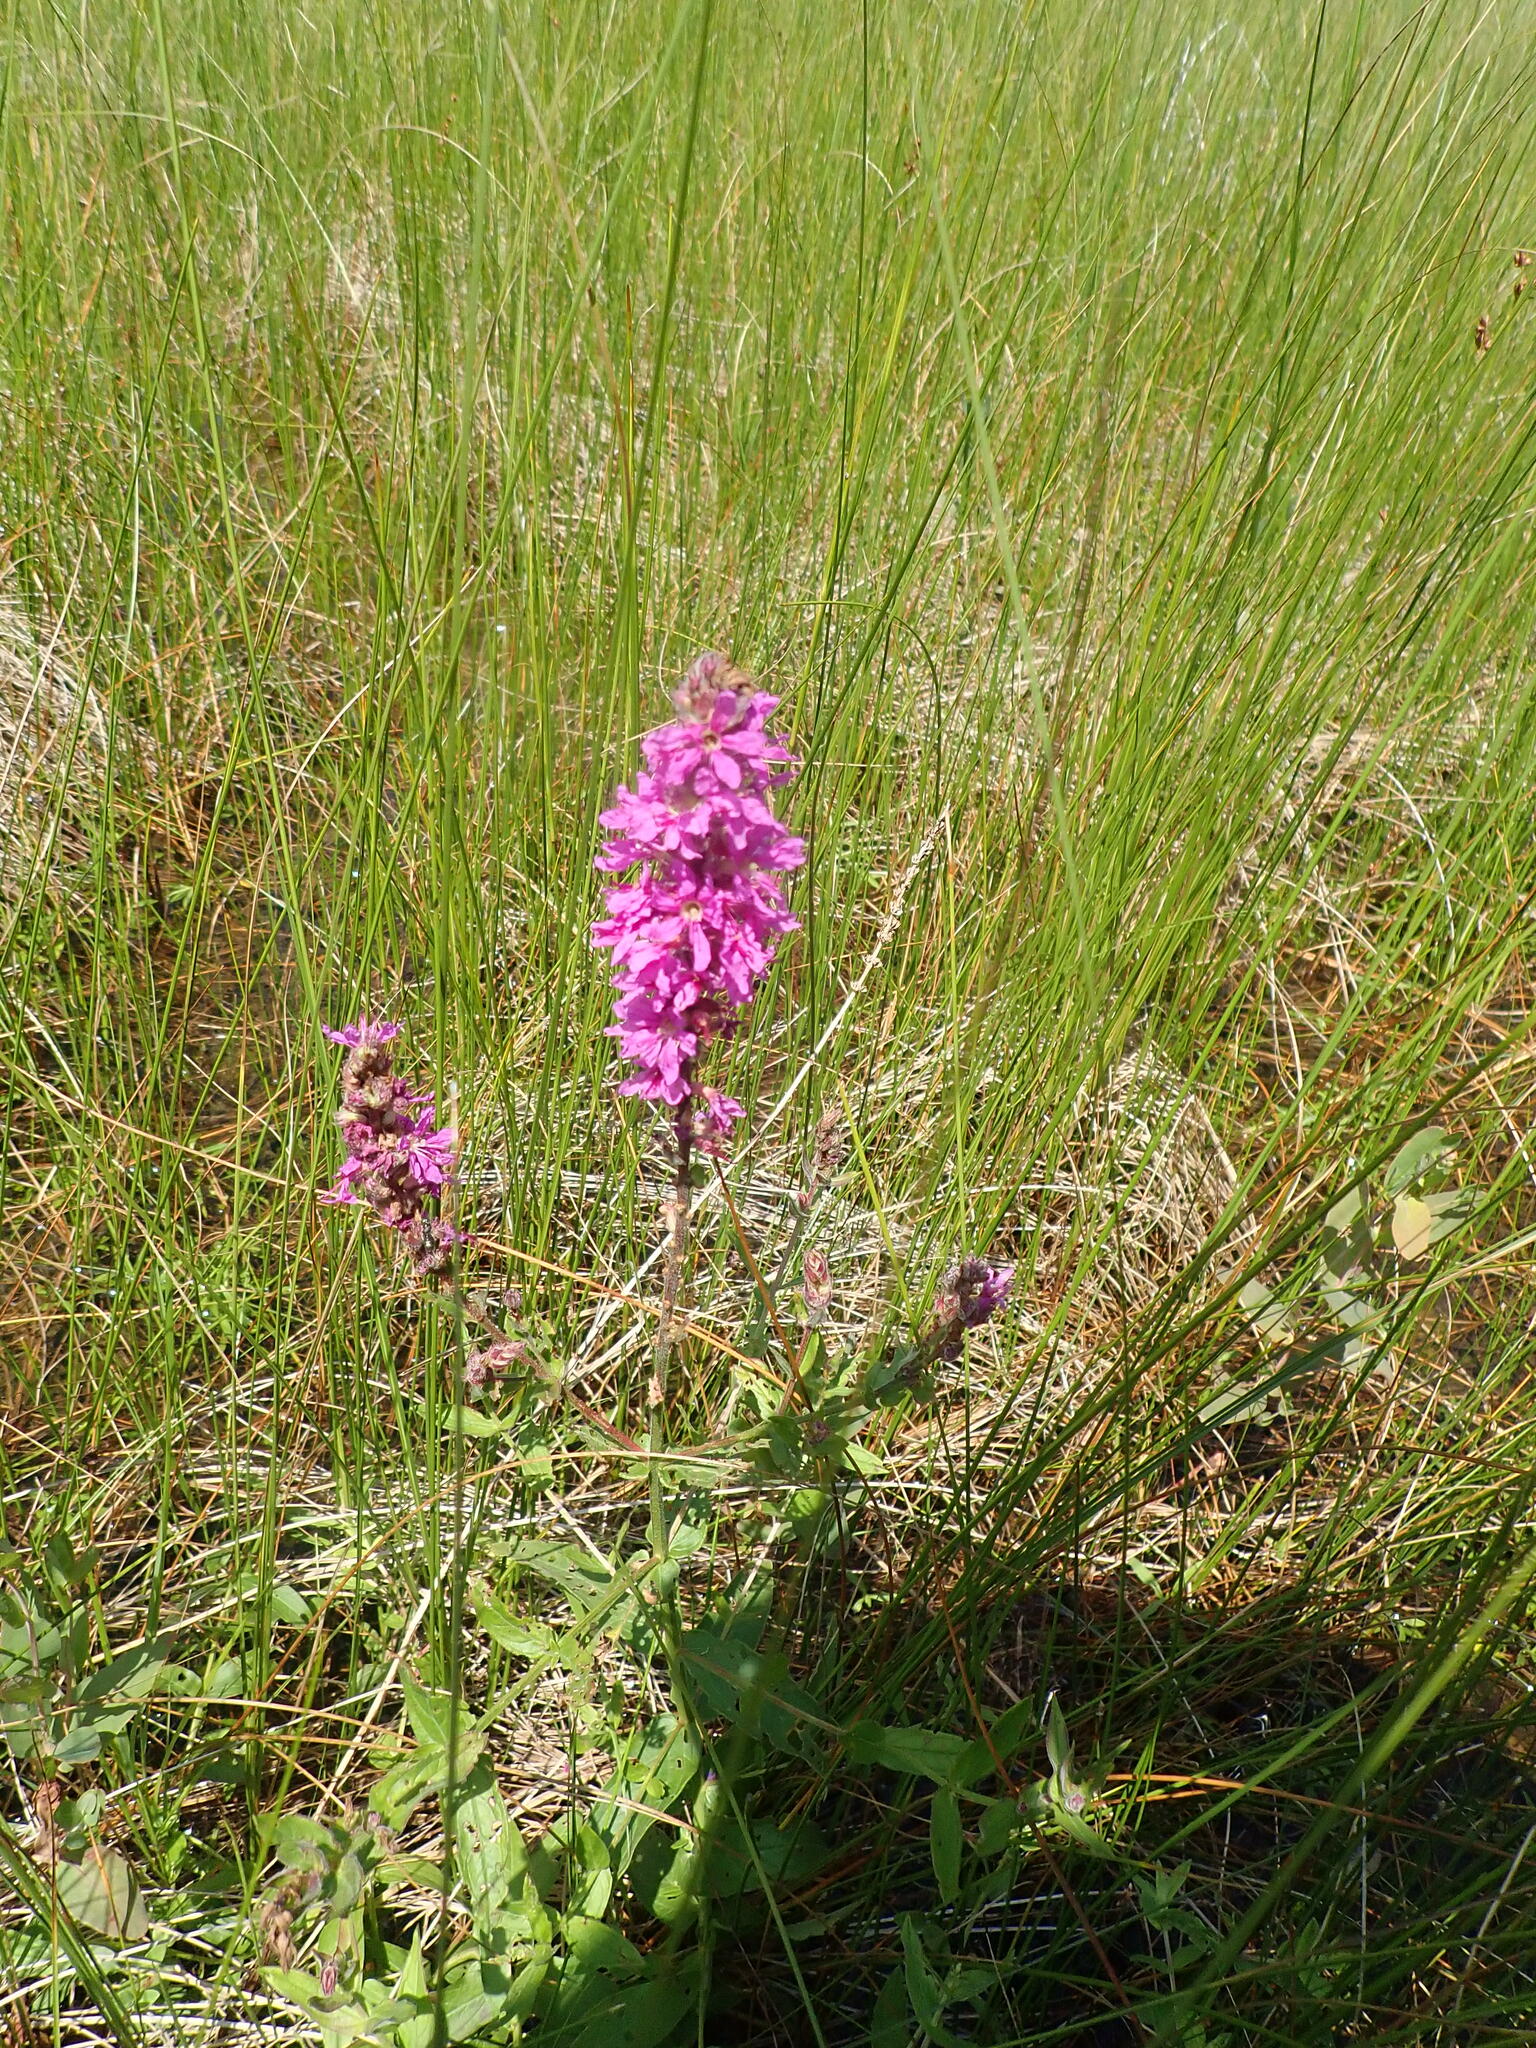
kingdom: Plantae
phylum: Tracheophyta
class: Magnoliopsida
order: Myrtales
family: Lythraceae
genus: Lythrum
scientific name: Lythrum salicaria
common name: Purple loosestrife
